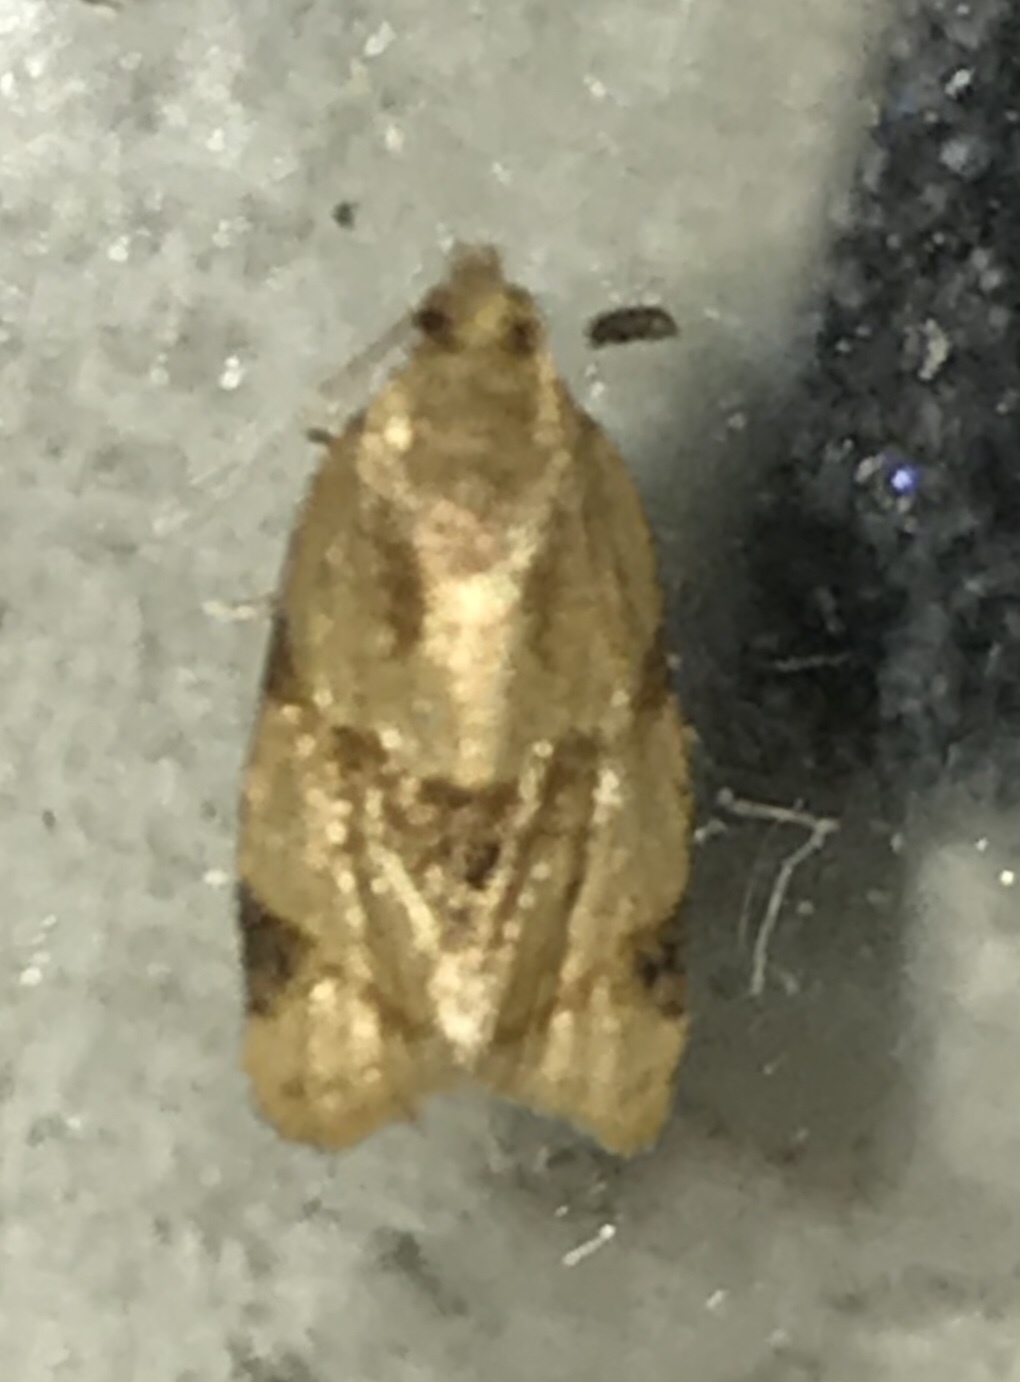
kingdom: Animalia
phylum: Arthropoda
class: Insecta
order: Lepidoptera
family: Tortricidae
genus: Clepsis
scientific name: Clepsis peritana
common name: Garden tortrix
